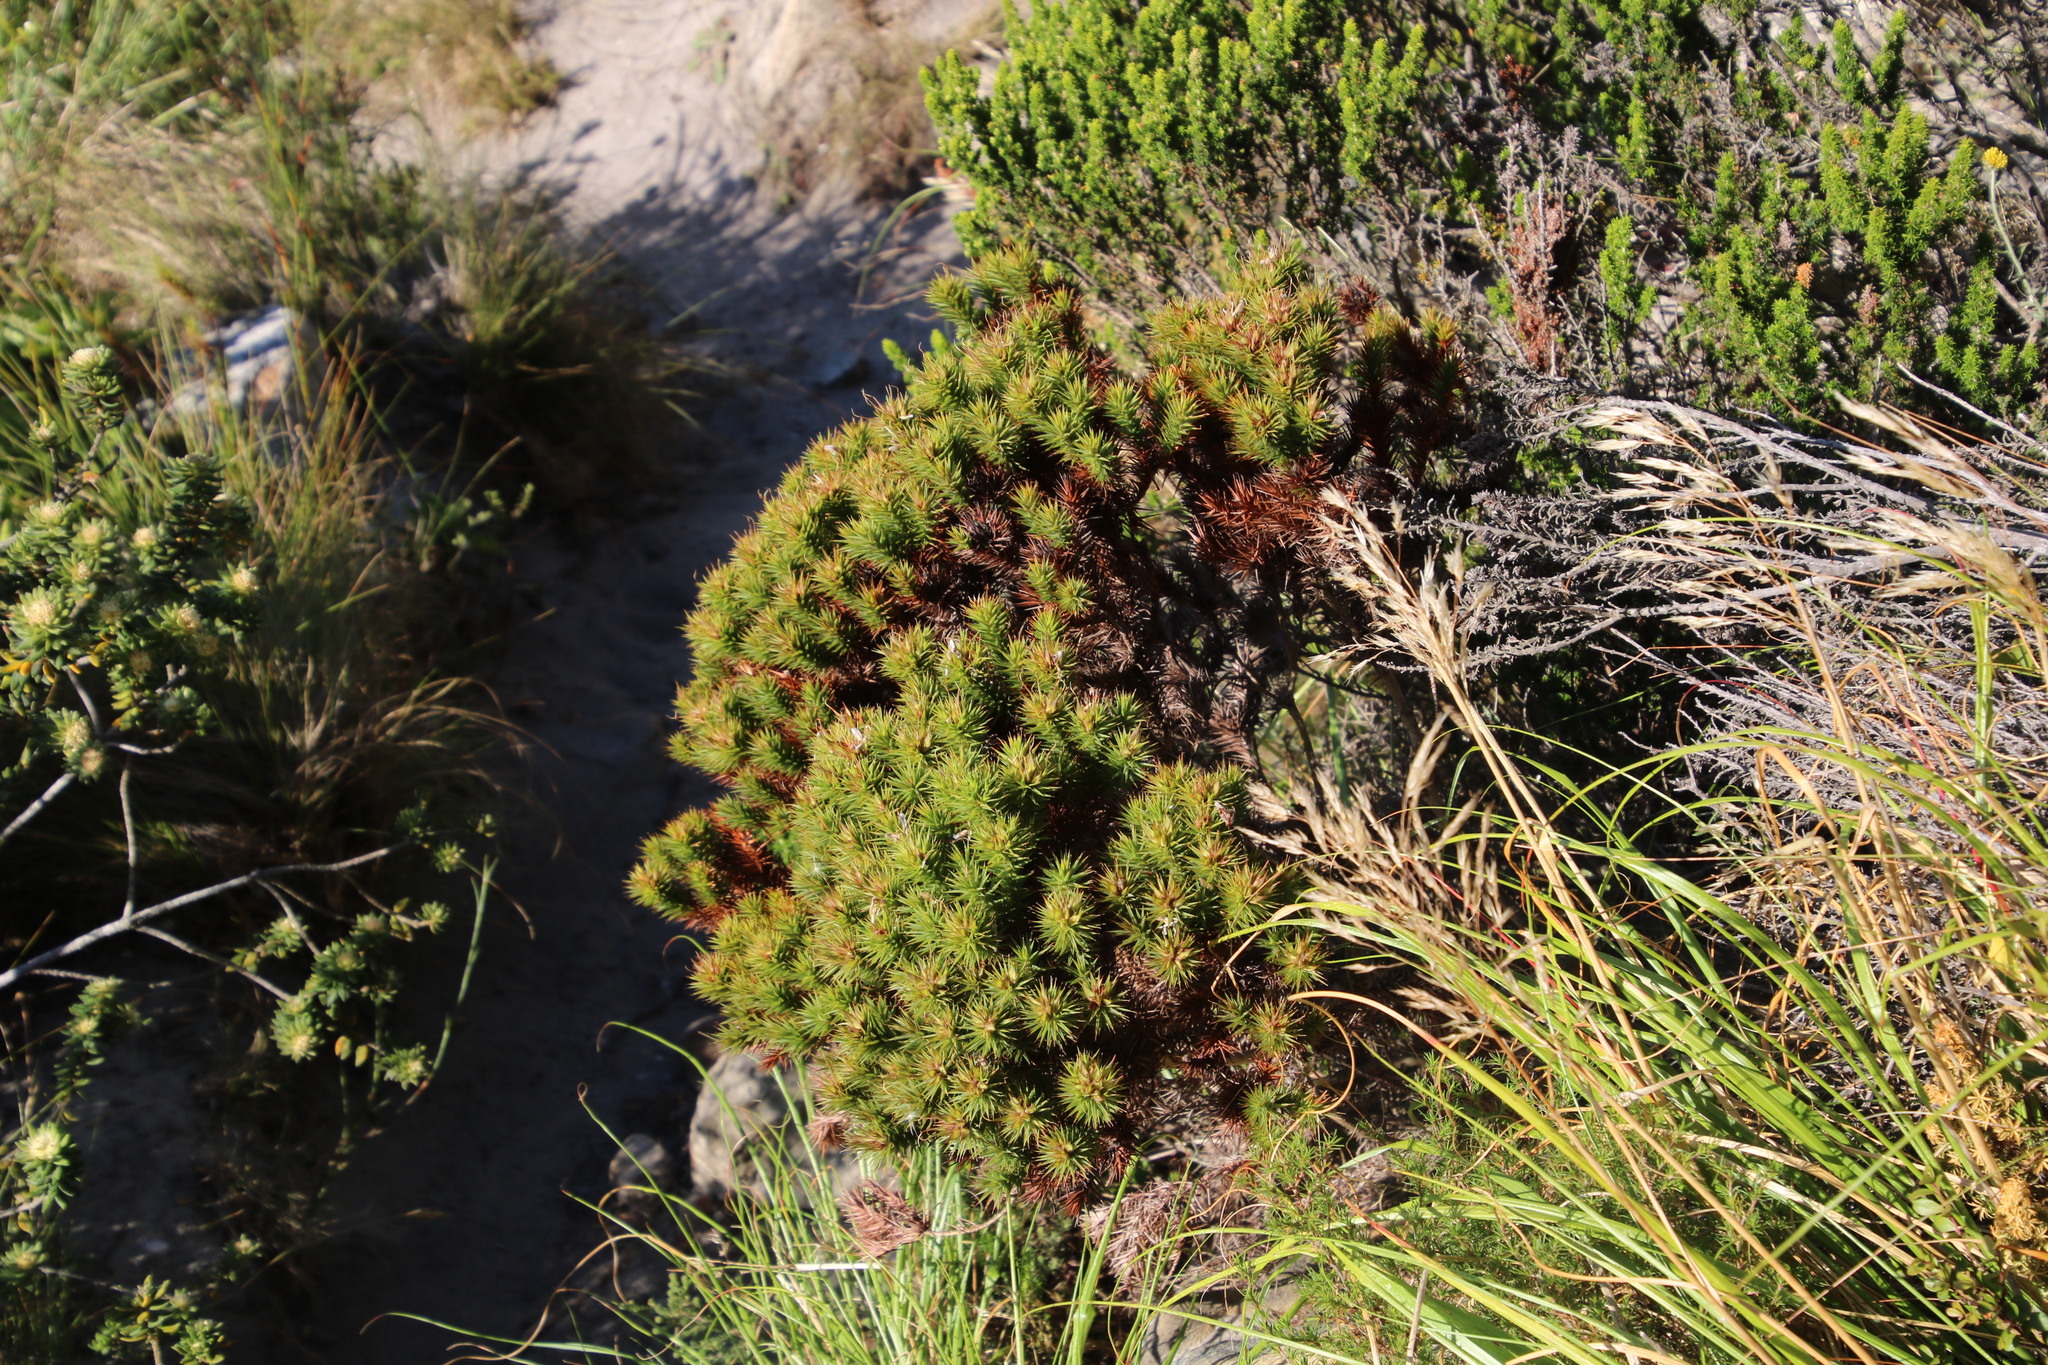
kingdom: Plantae
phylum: Tracheophyta
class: Magnoliopsida
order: Fabales
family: Fabaceae
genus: Aspalathus
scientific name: Aspalathus barbata
